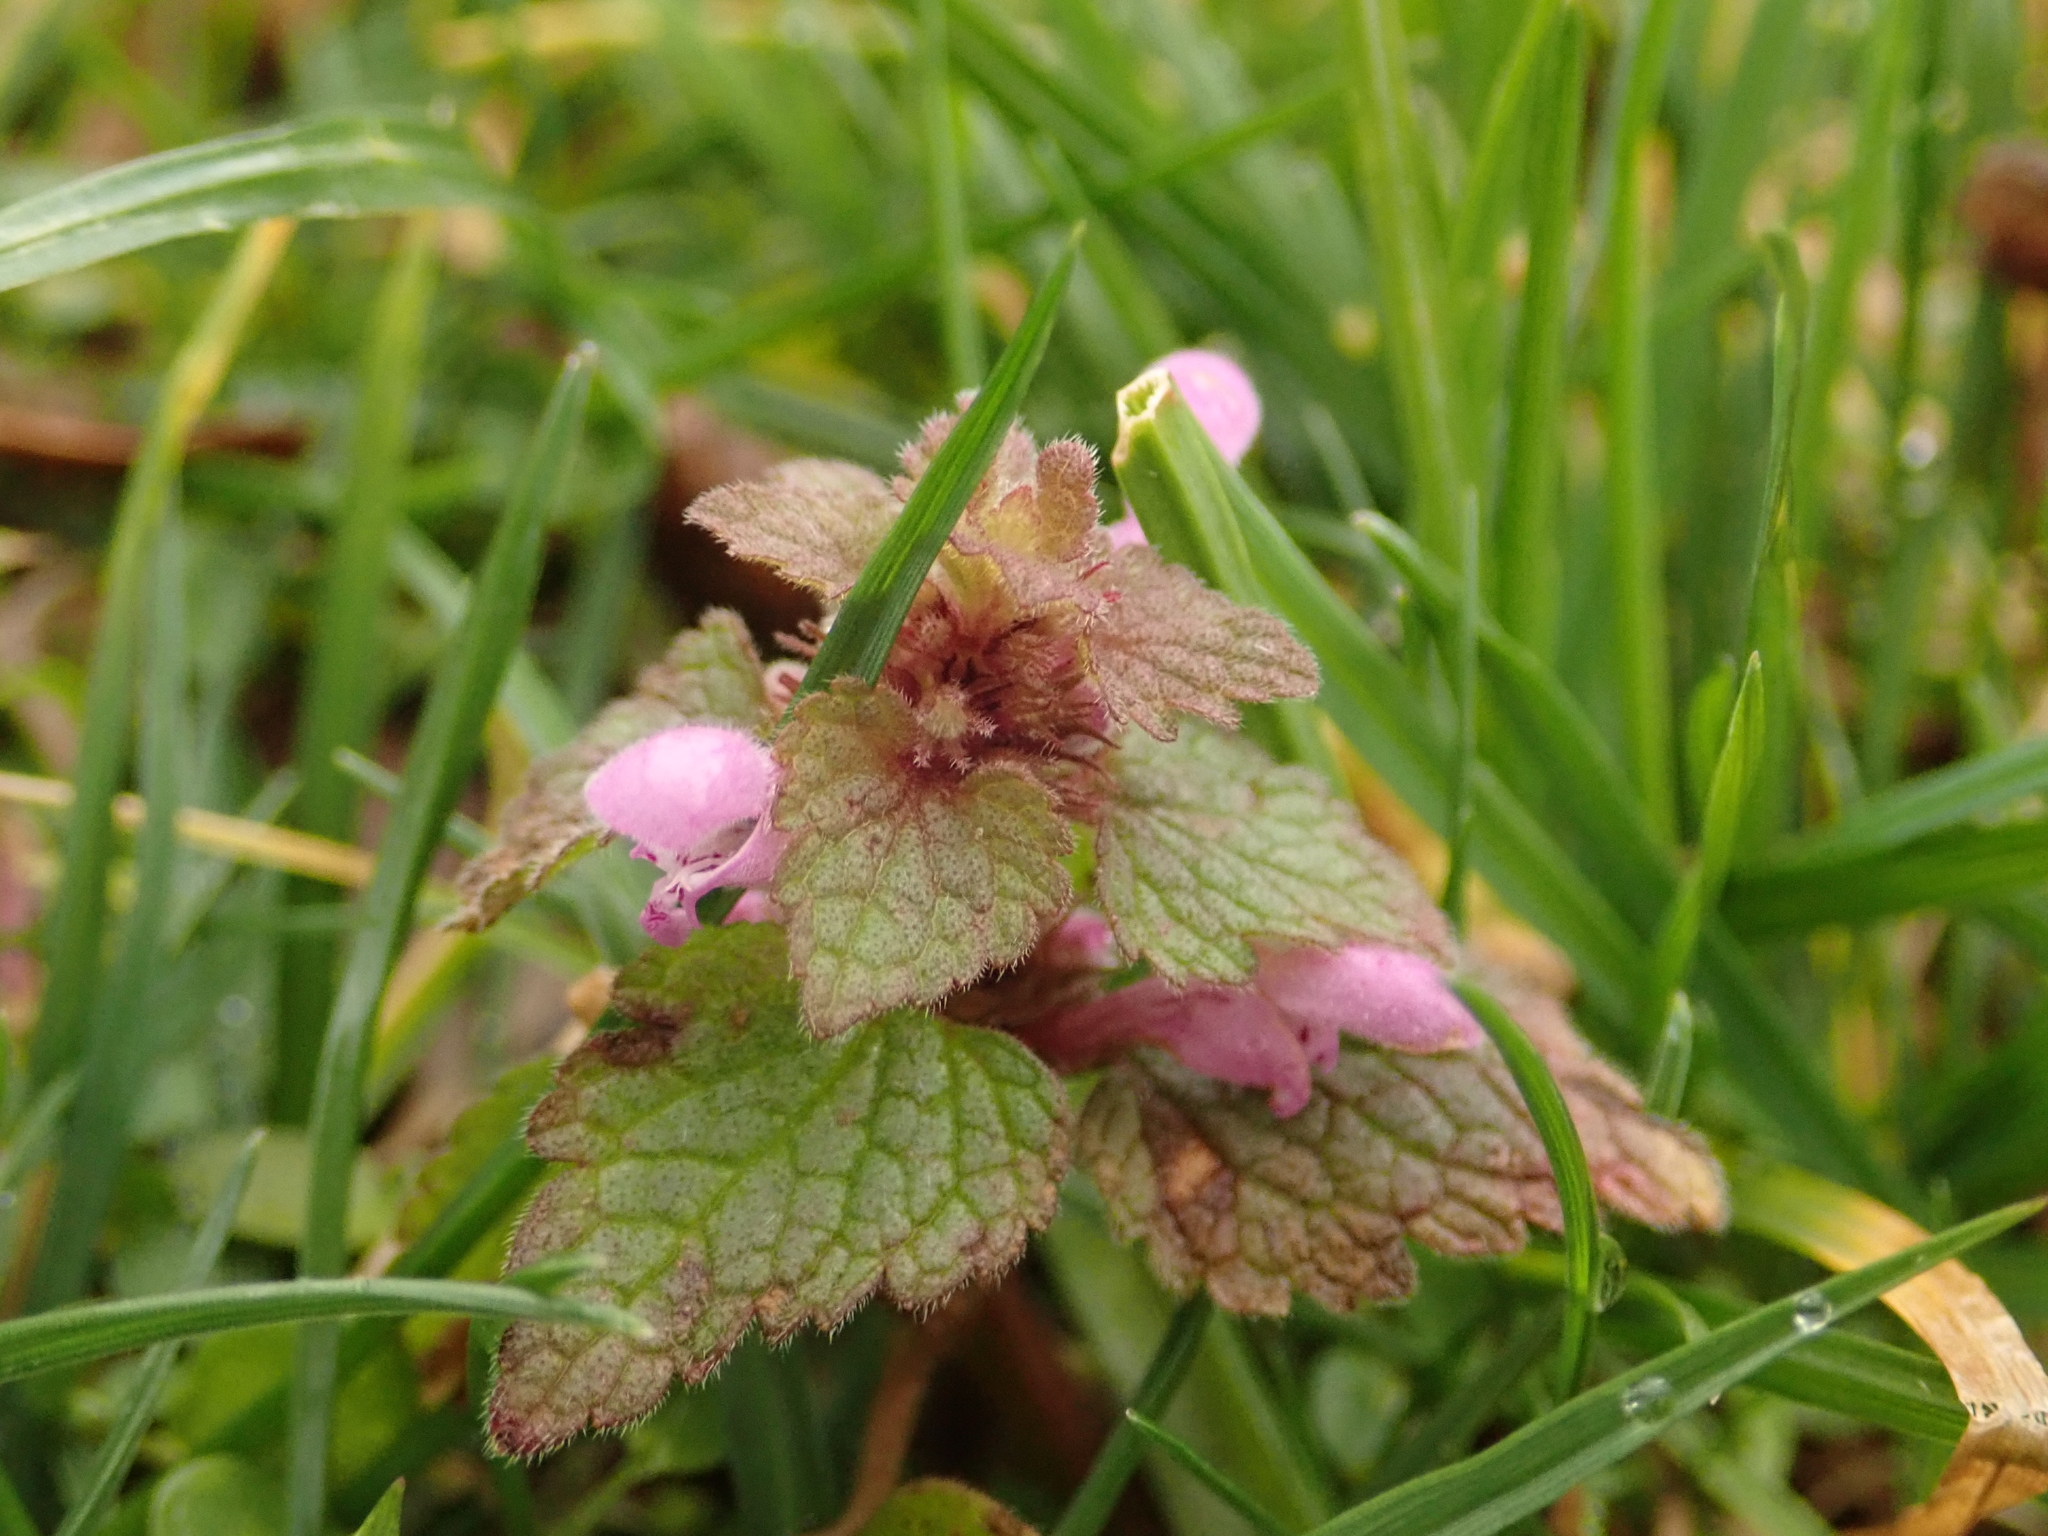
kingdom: Plantae
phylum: Tracheophyta
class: Magnoliopsida
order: Lamiales
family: Lamiaceae
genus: Lamium
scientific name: Lamium purpureum
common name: Red dead-nettle
